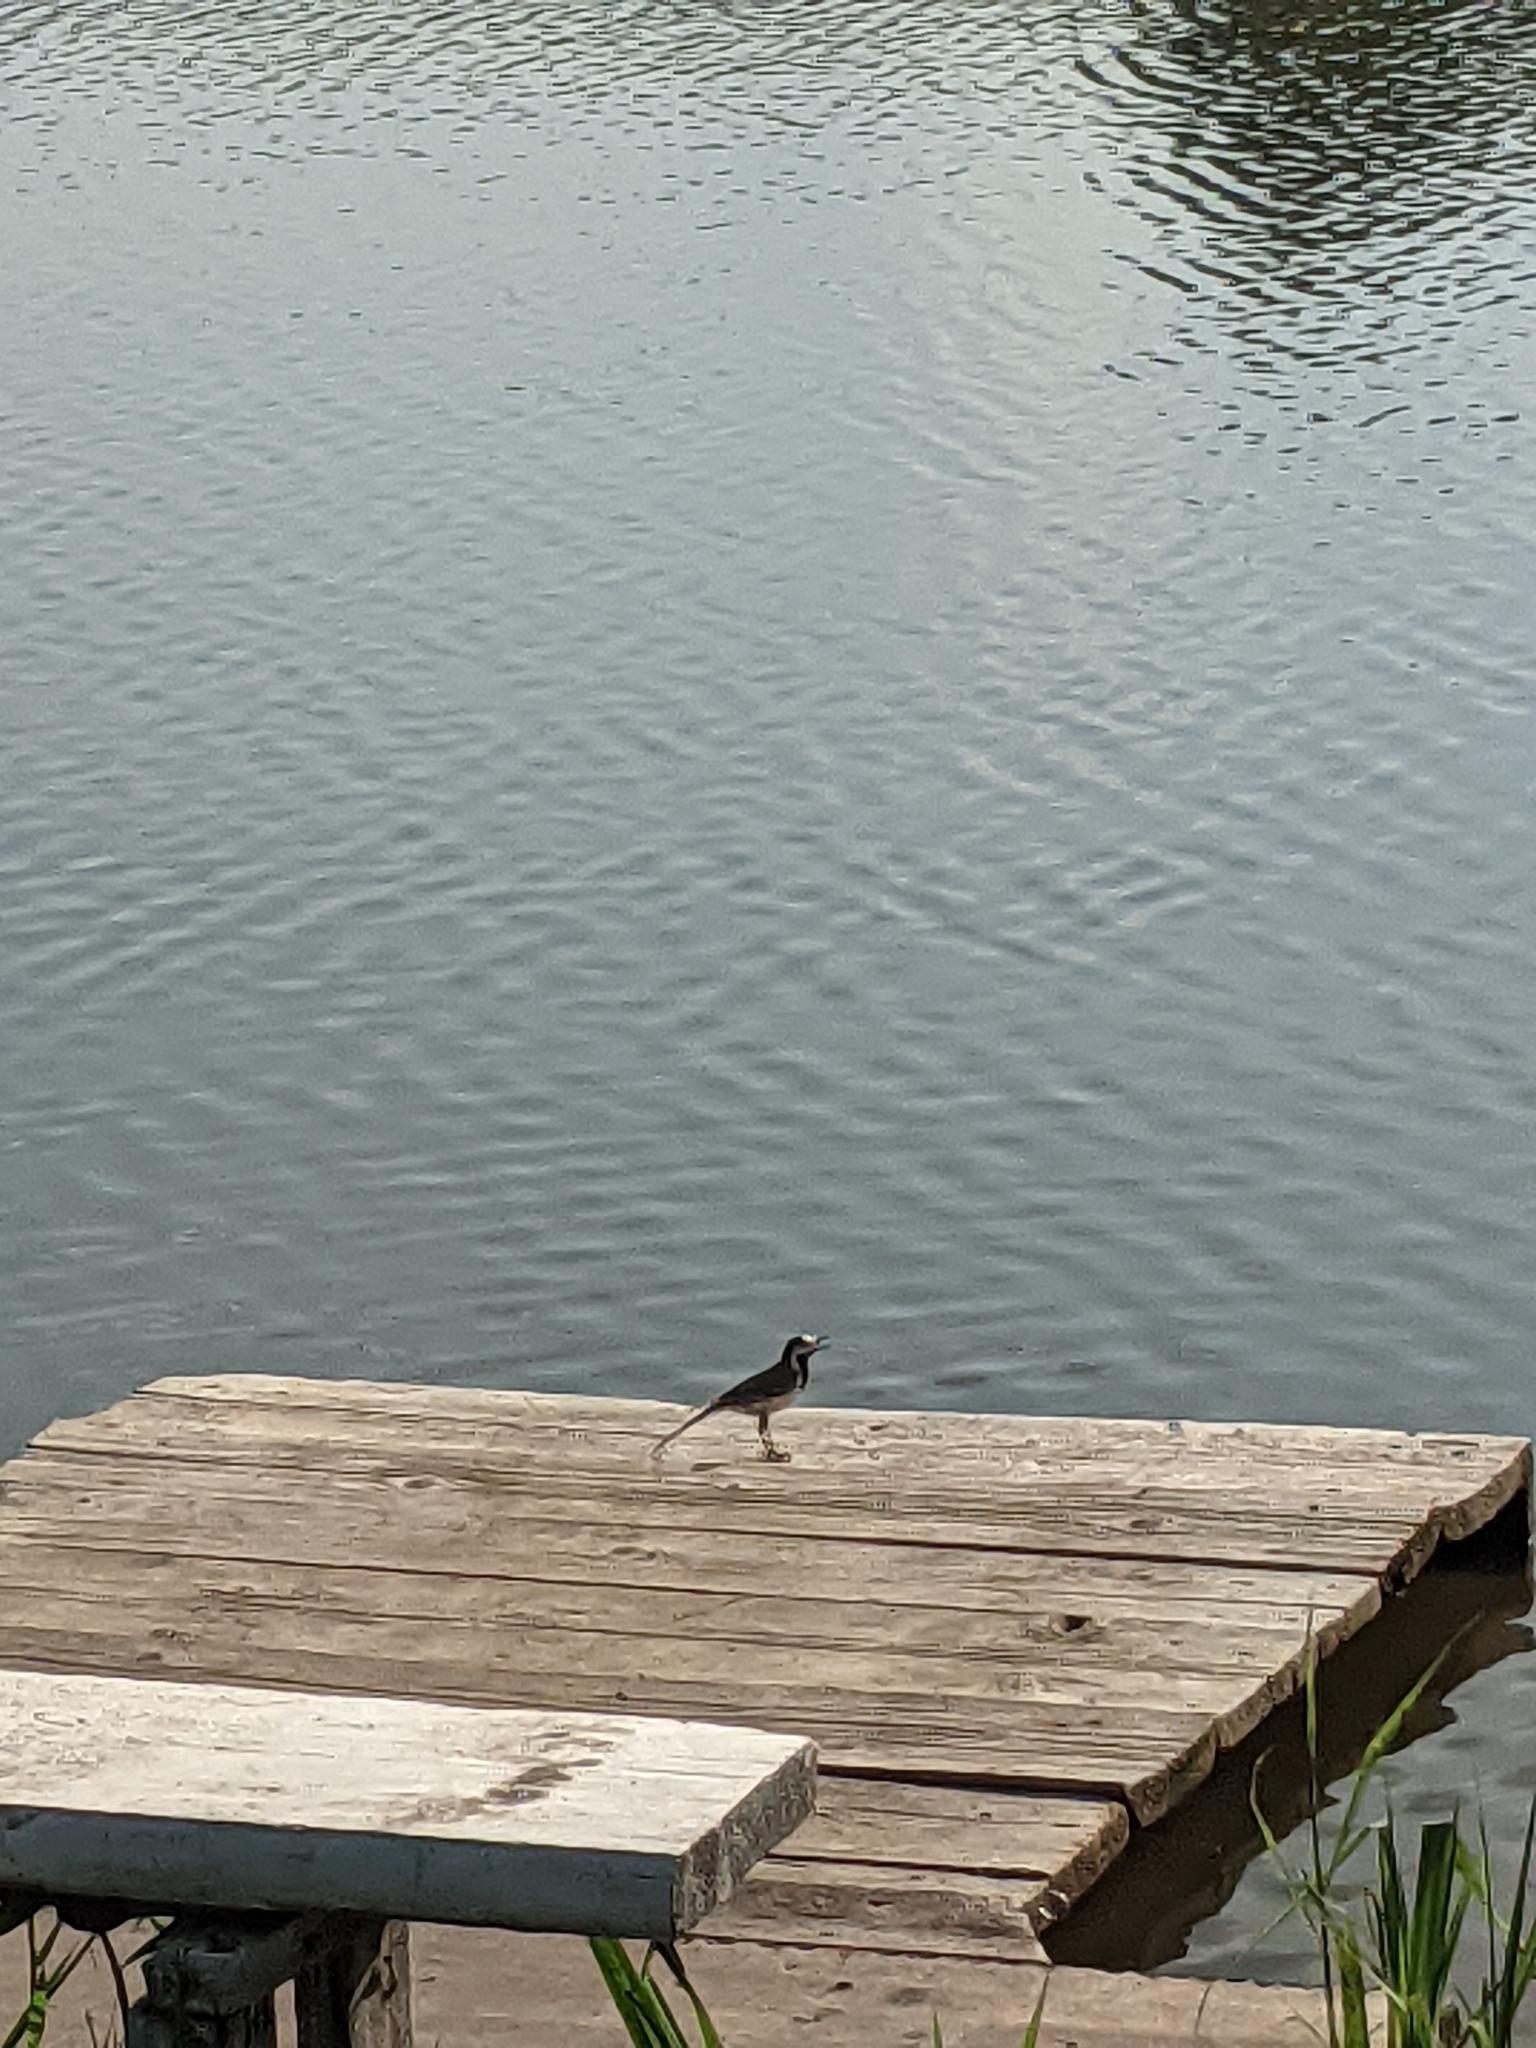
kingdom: Animalia
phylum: Chordata
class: Aves
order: Passeriformes
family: Motacillidae
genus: Motacilla
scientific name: Motacilla alba
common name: White wagtail
